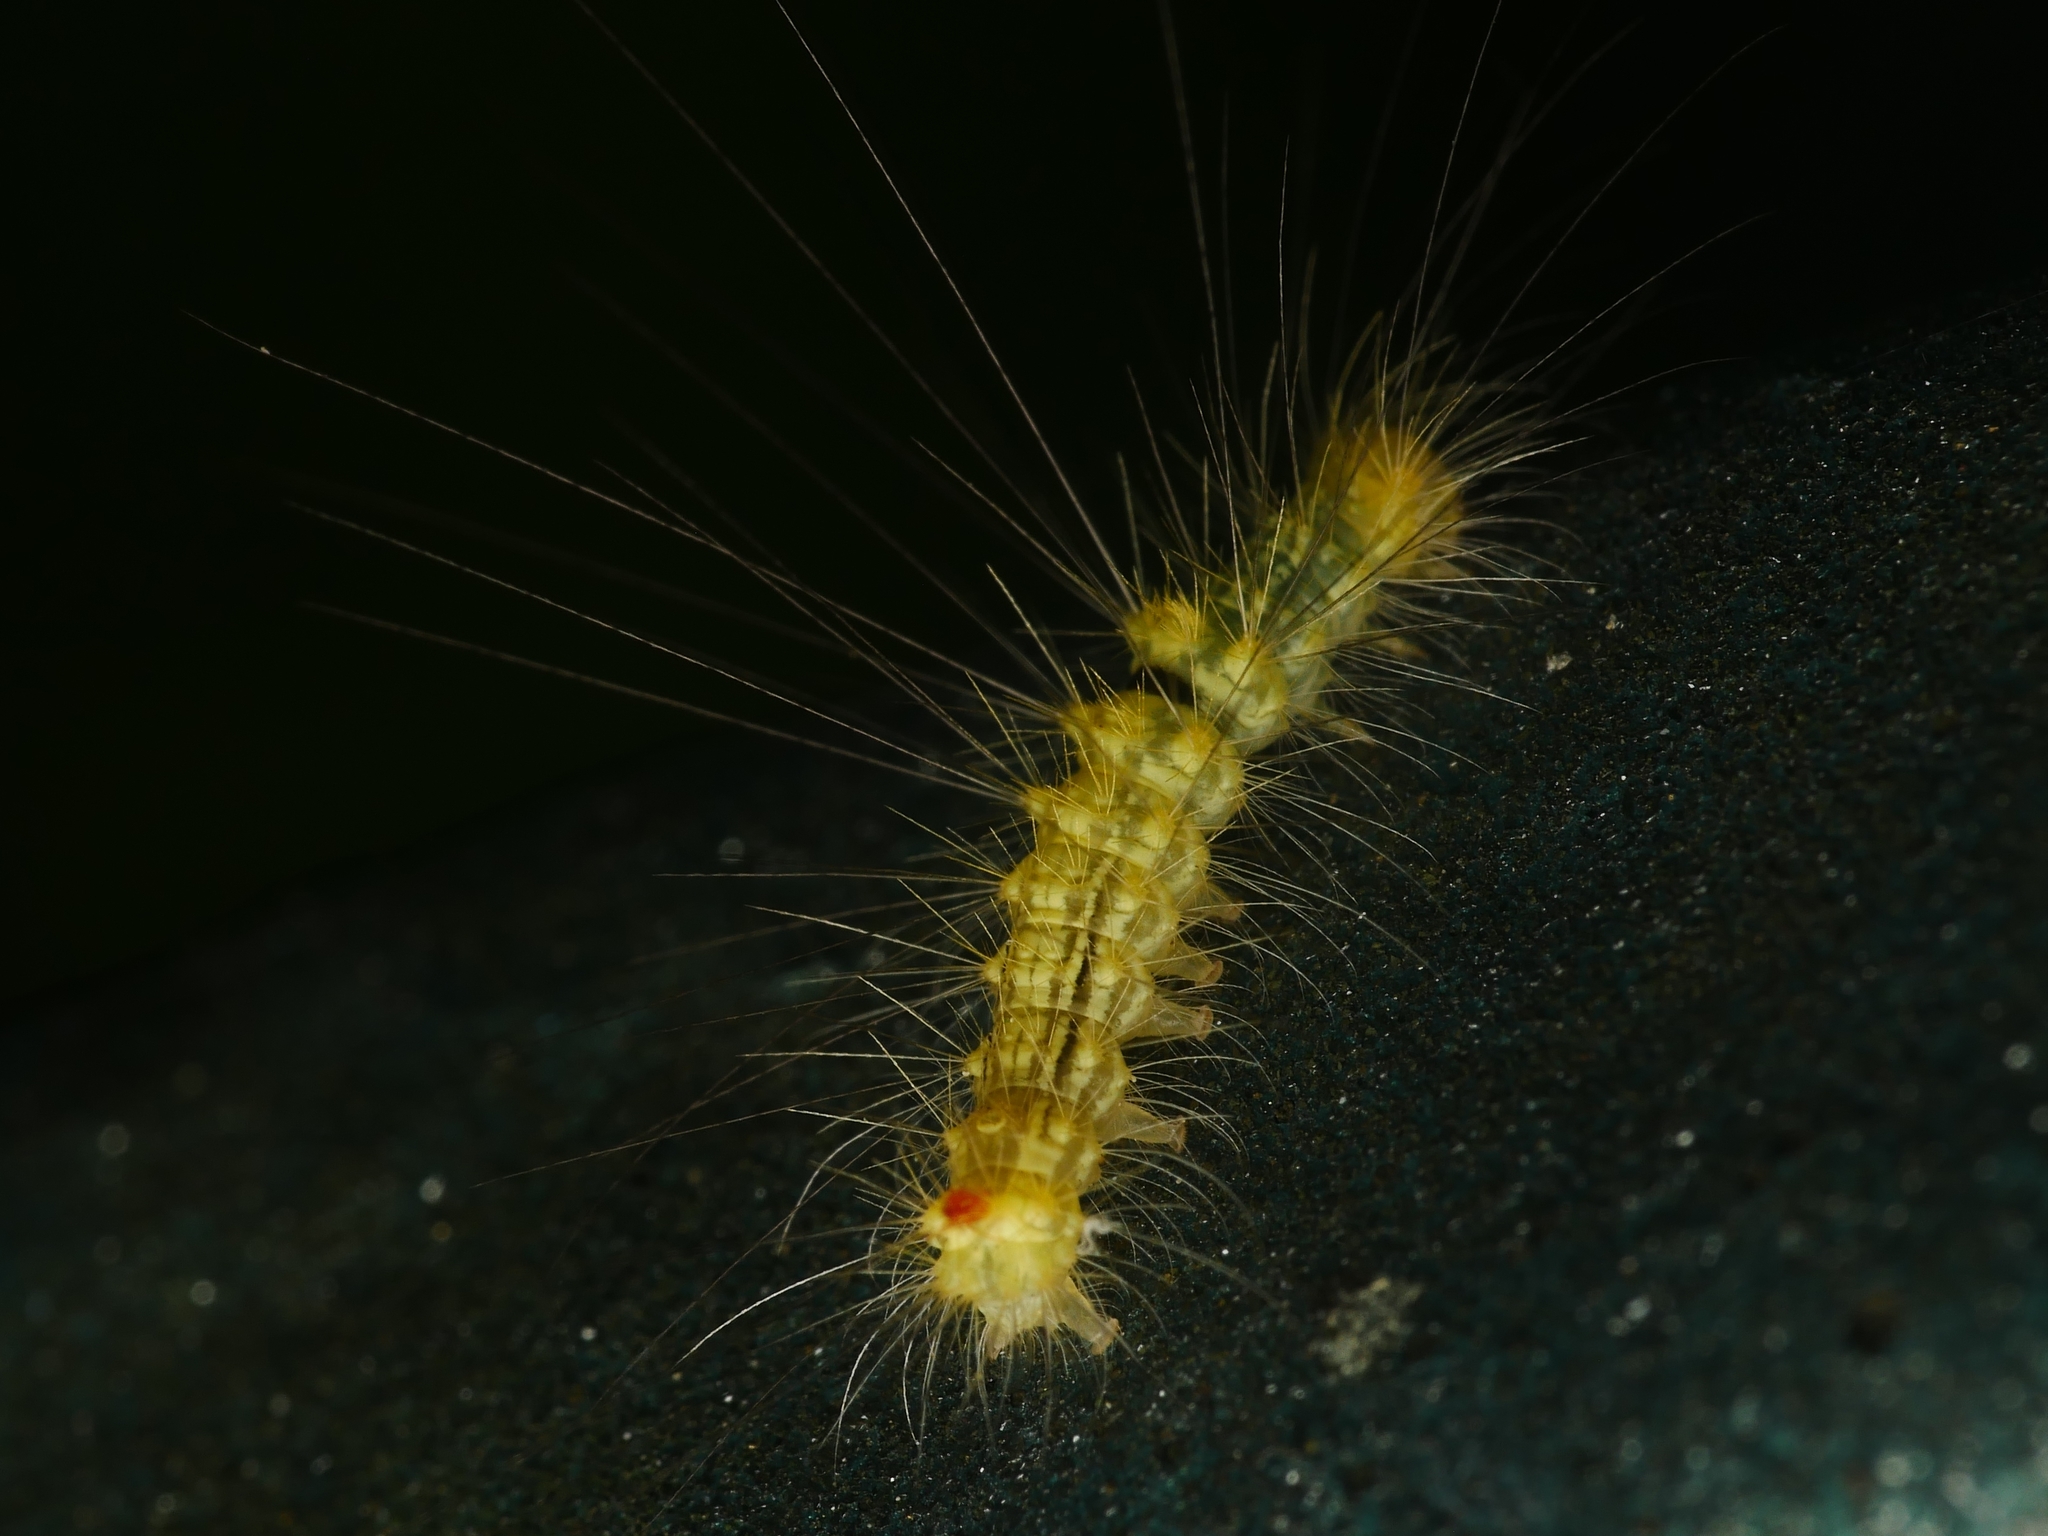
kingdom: Animalia
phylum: Arthropoda
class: Insecta
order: Lepidoptera
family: Erebidae
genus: Calliteara
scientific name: Calliteara pudibunda
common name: Pale tussock
